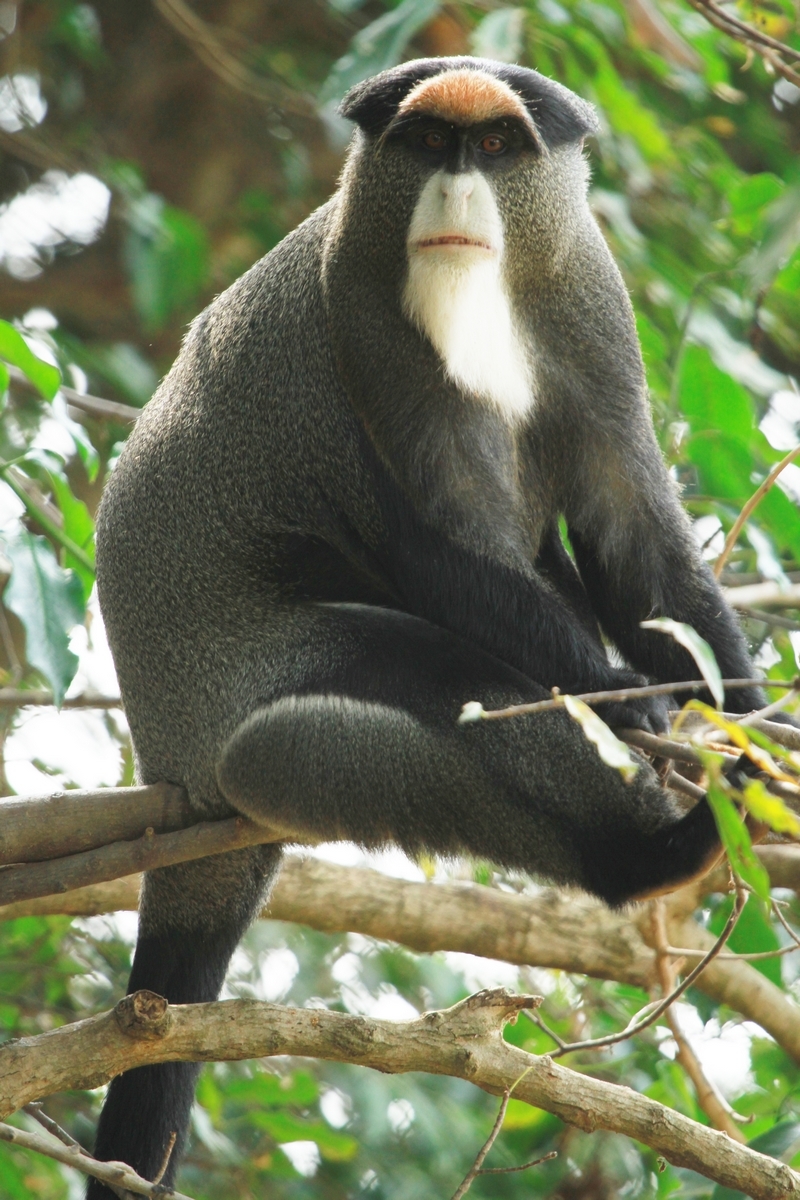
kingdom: Animalia
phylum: Chordata
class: Mammalia
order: Primates
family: Cercopithecidae
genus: Cercopithecus
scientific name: Cercopithecus neglectus
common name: De brazza's guenon
